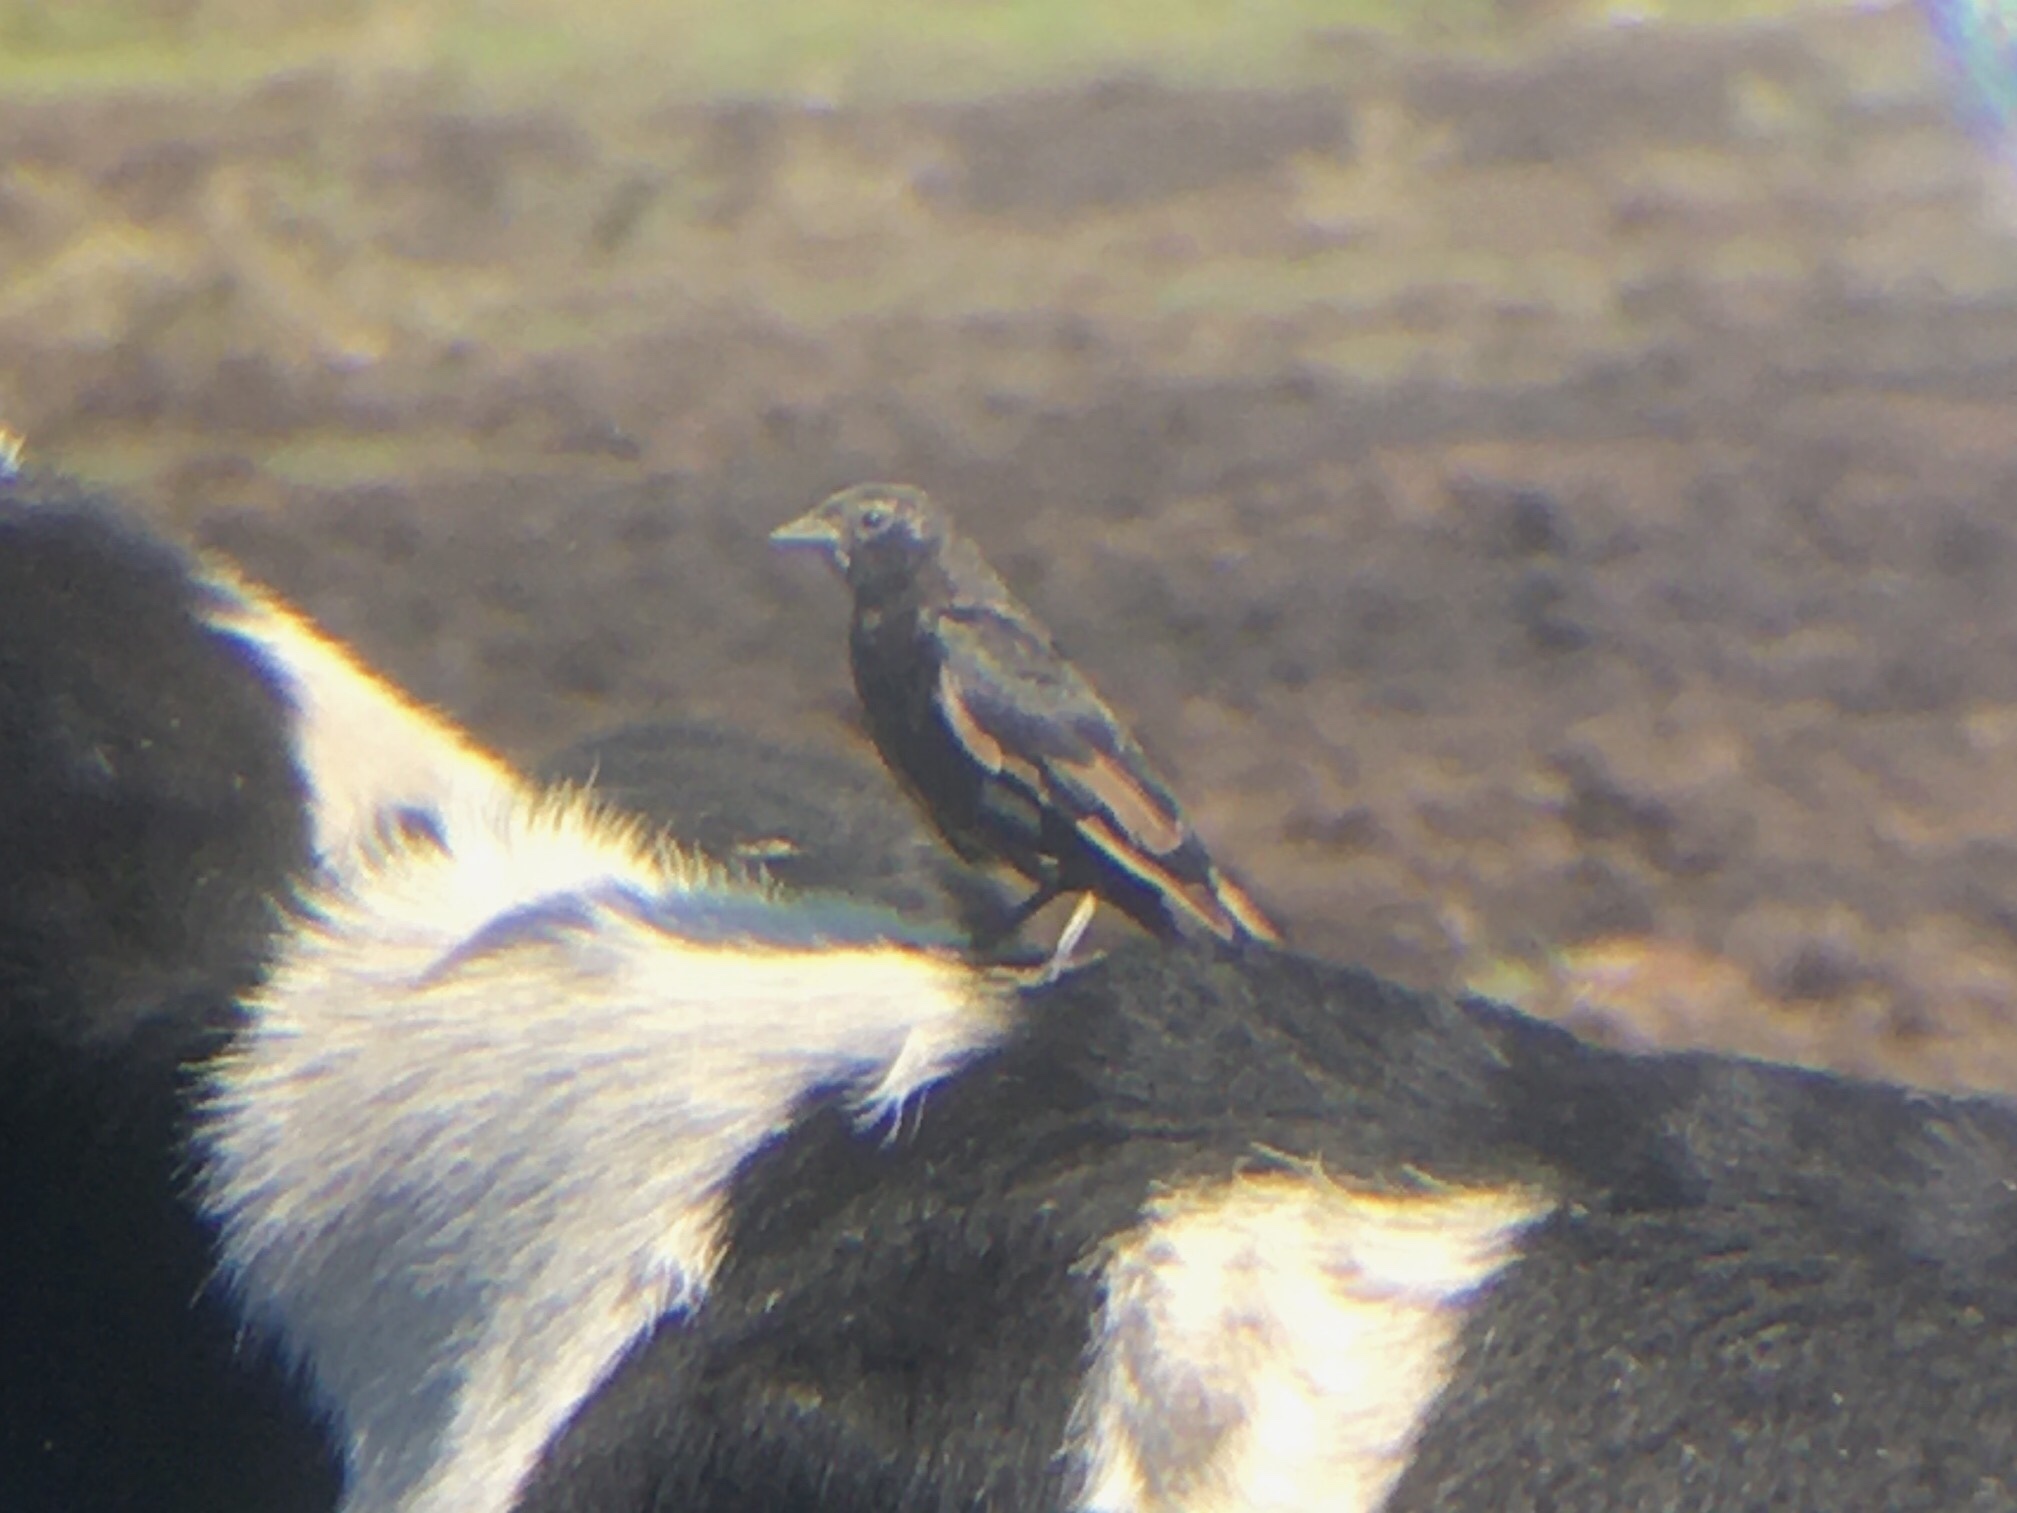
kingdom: Animalia
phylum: Chordata
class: Aves
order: Passeriformes
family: Icteridae
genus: Molothrus
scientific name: Molothrus rufoaxillaris
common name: Screaming cowbird
